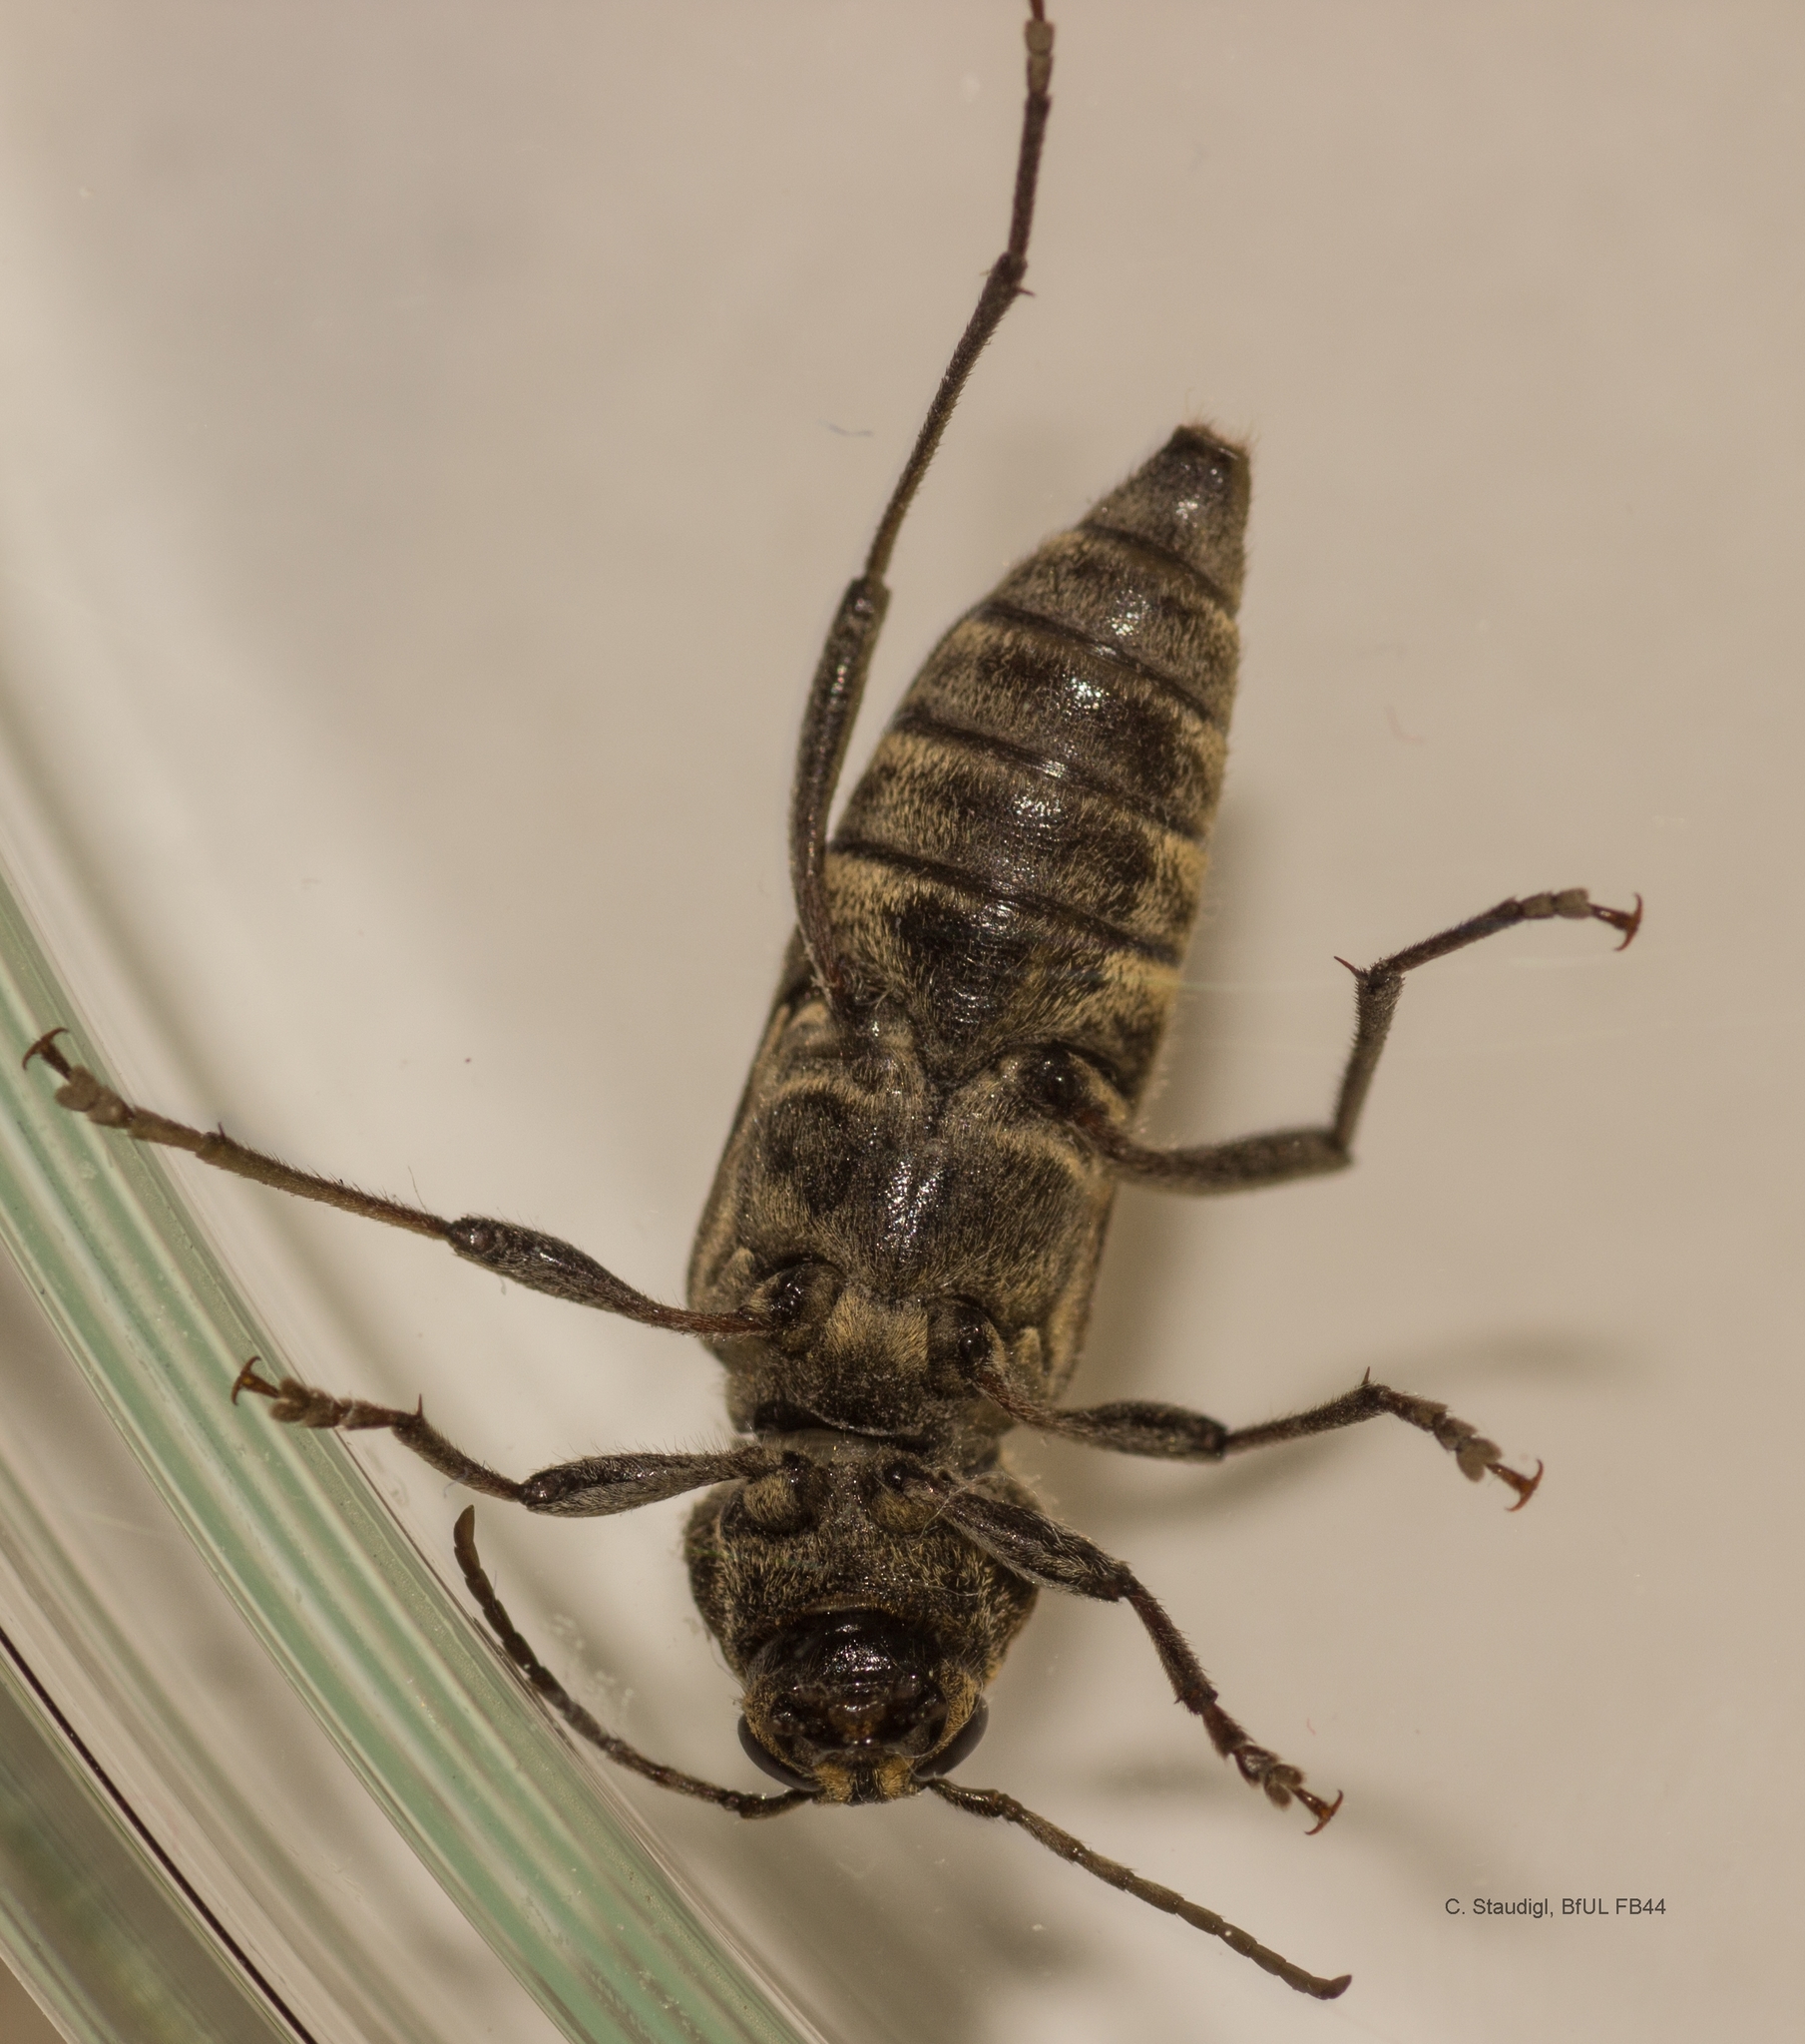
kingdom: Animalia
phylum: Arthropoda
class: Insecta
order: Coleoptera
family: Cerambycidae
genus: Xylotrechus
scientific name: Xylotrechus rusticus
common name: Grey tiger long-horned beetle
